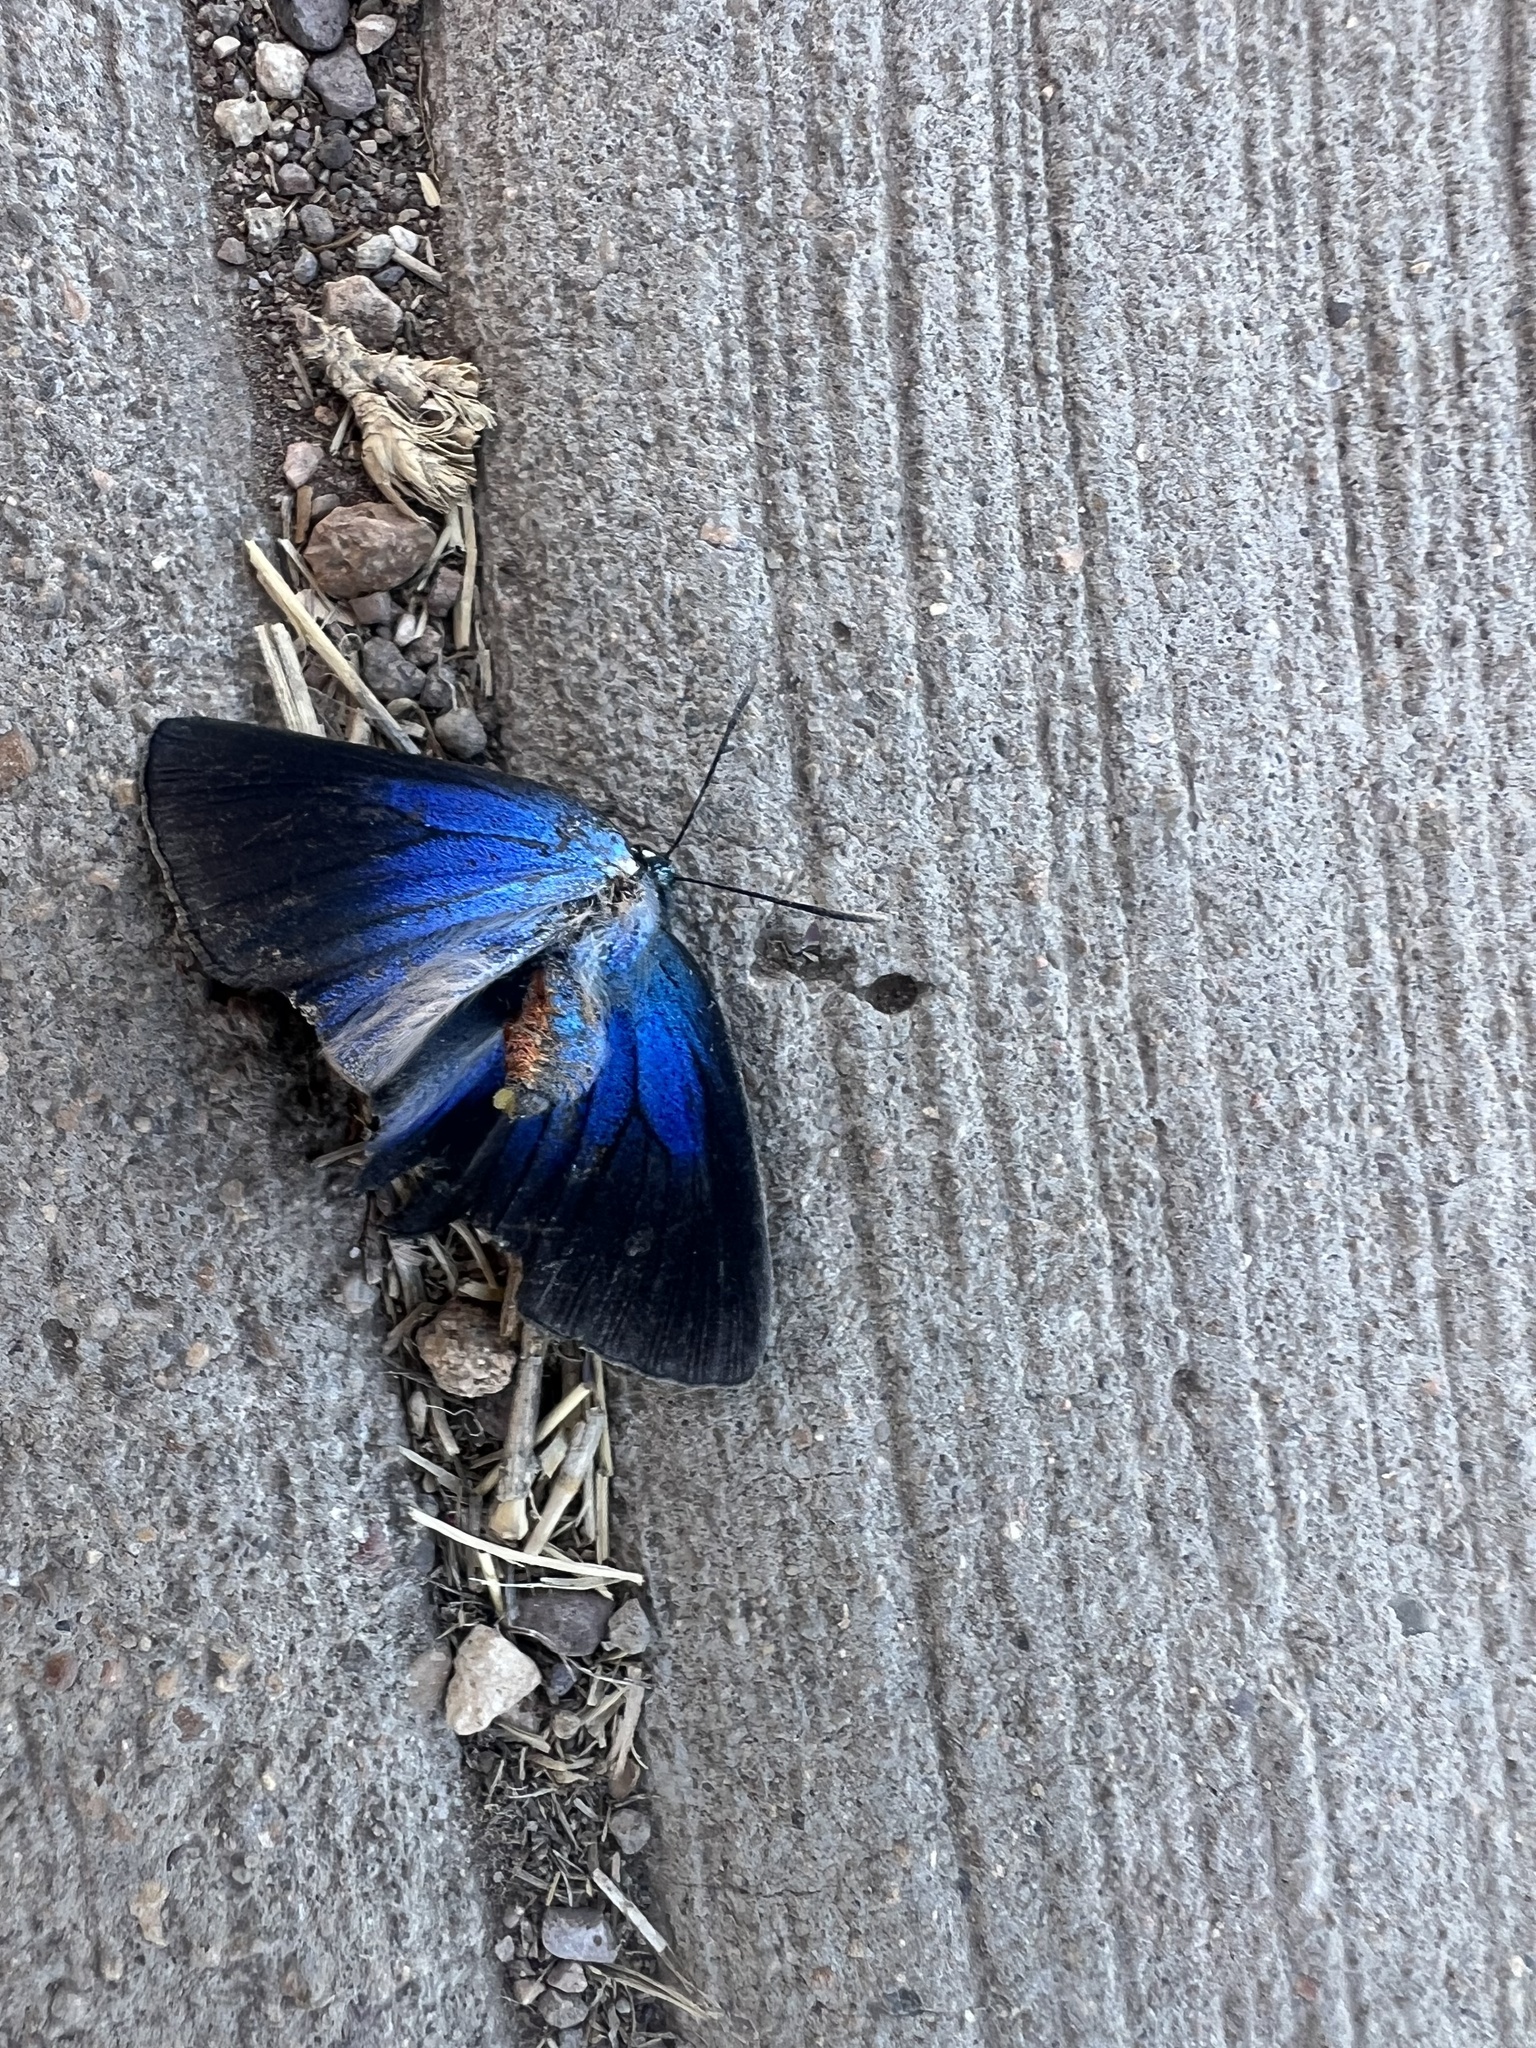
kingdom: Animalia
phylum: Arthropoda
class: Insecta
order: Lepidoptera
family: Lycaenidae
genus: Atlides
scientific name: Atlides halesus
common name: Great purple hairstreak
